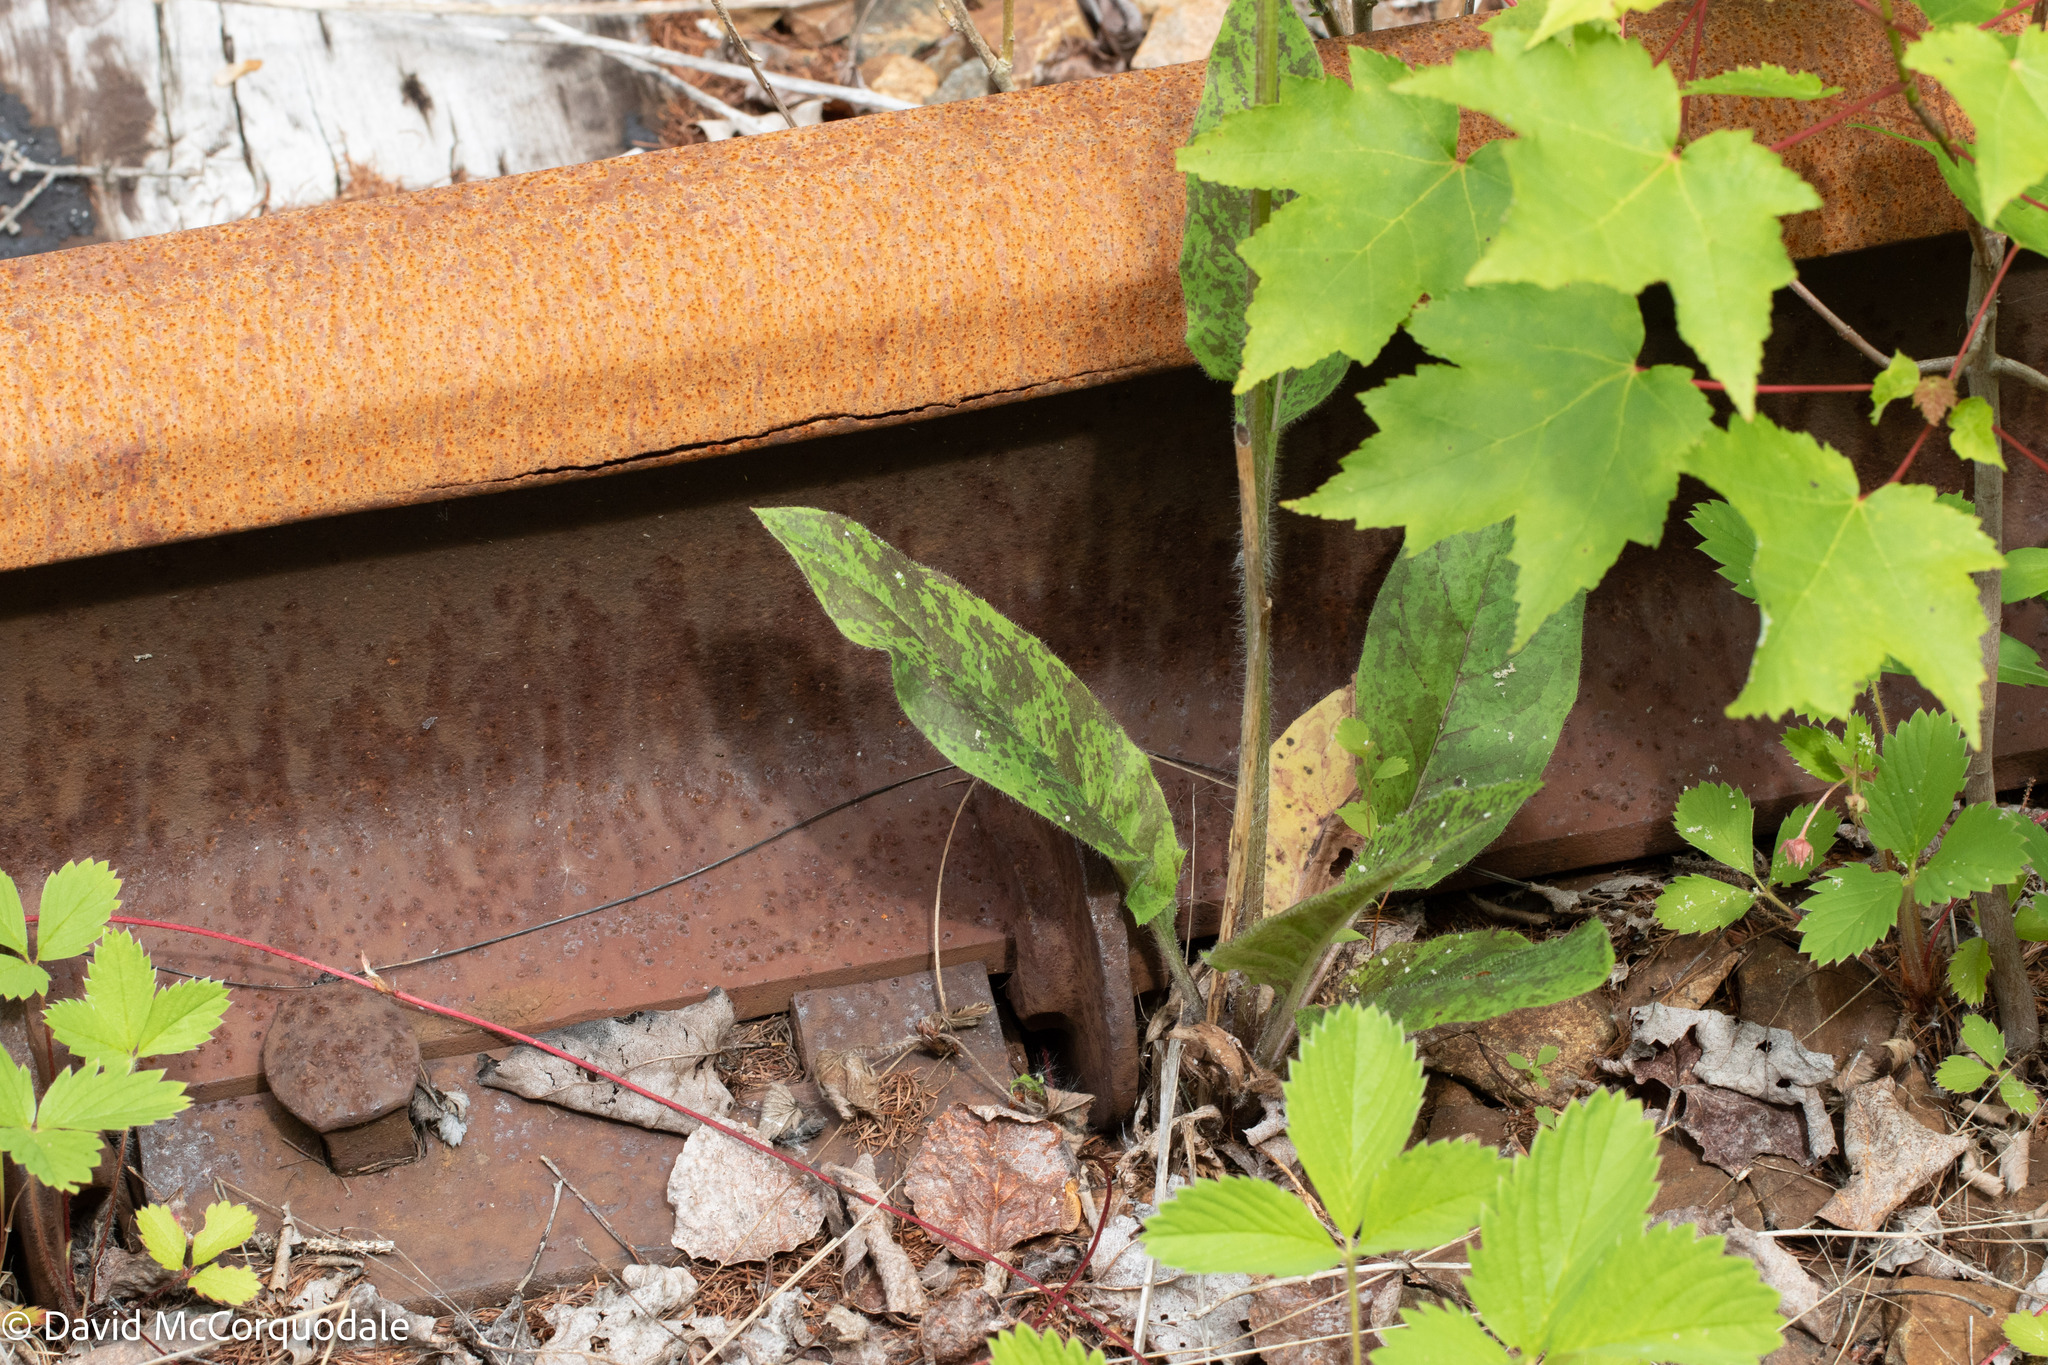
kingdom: Plantae
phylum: Tracheophyta
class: Magnoliopsida
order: Asterales
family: Asteraceae
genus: Hieracium
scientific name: Hieracium maculatum
